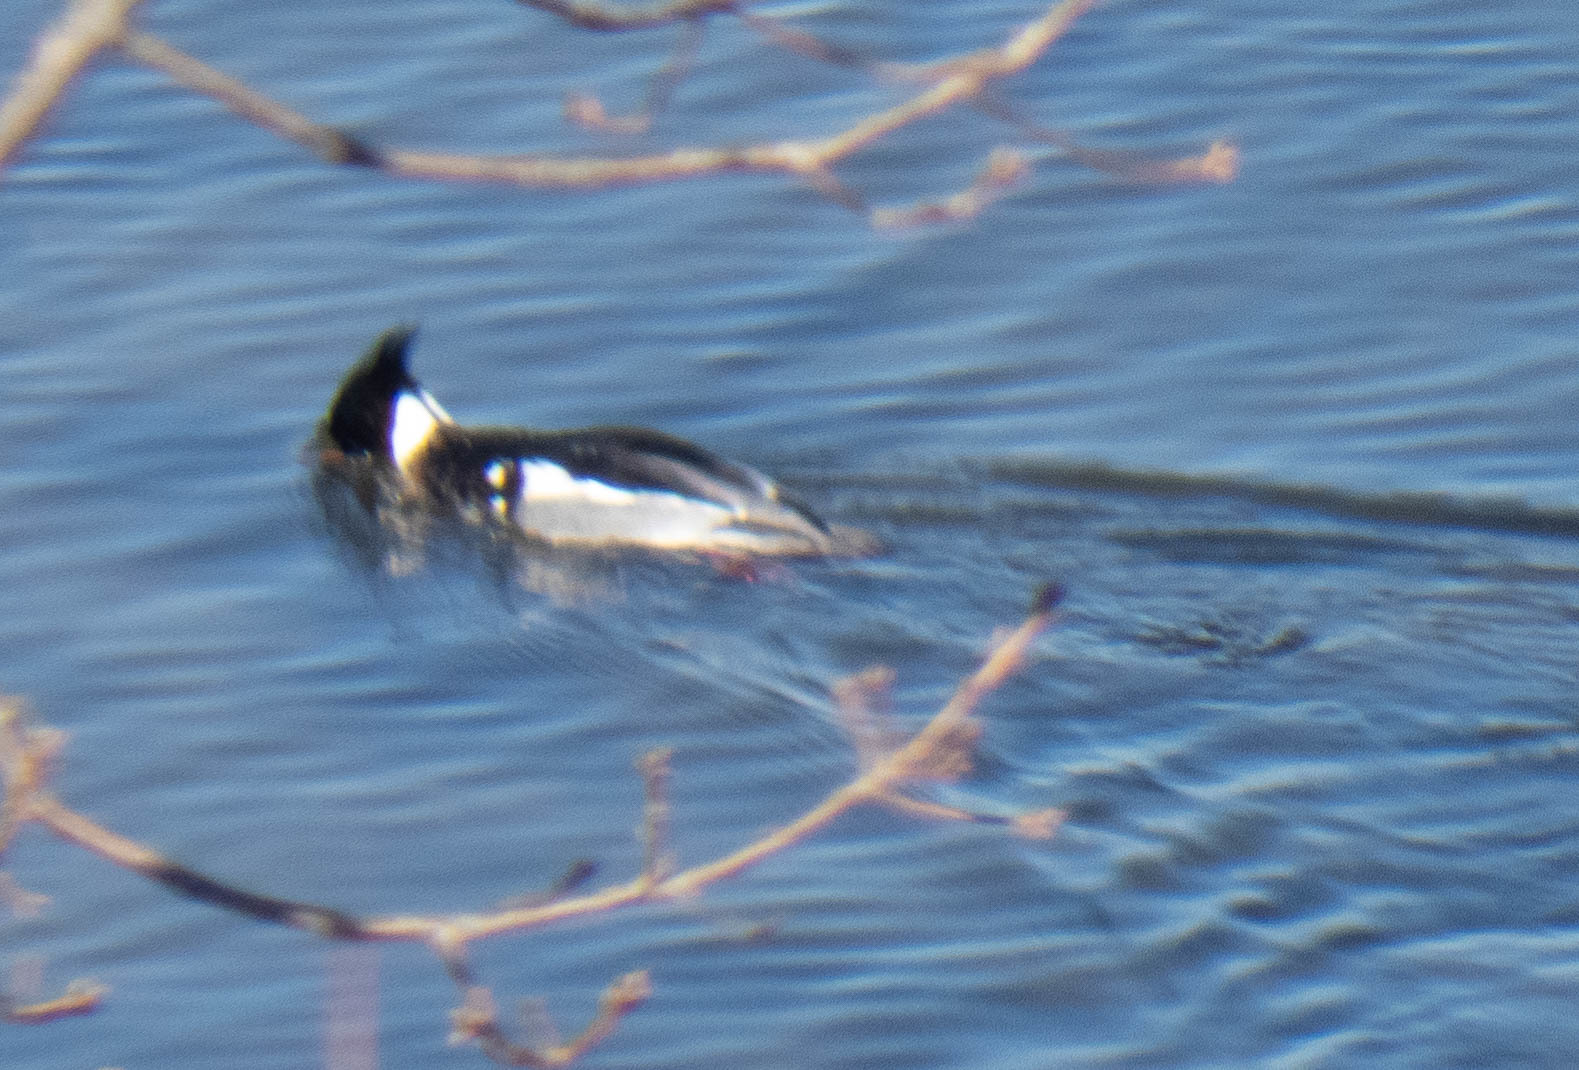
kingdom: Animalia
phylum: Chordata
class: Aves
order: Anseriformes
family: Anatidae
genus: Mergus
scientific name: Mergus serrator
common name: Red-breasted merganser
